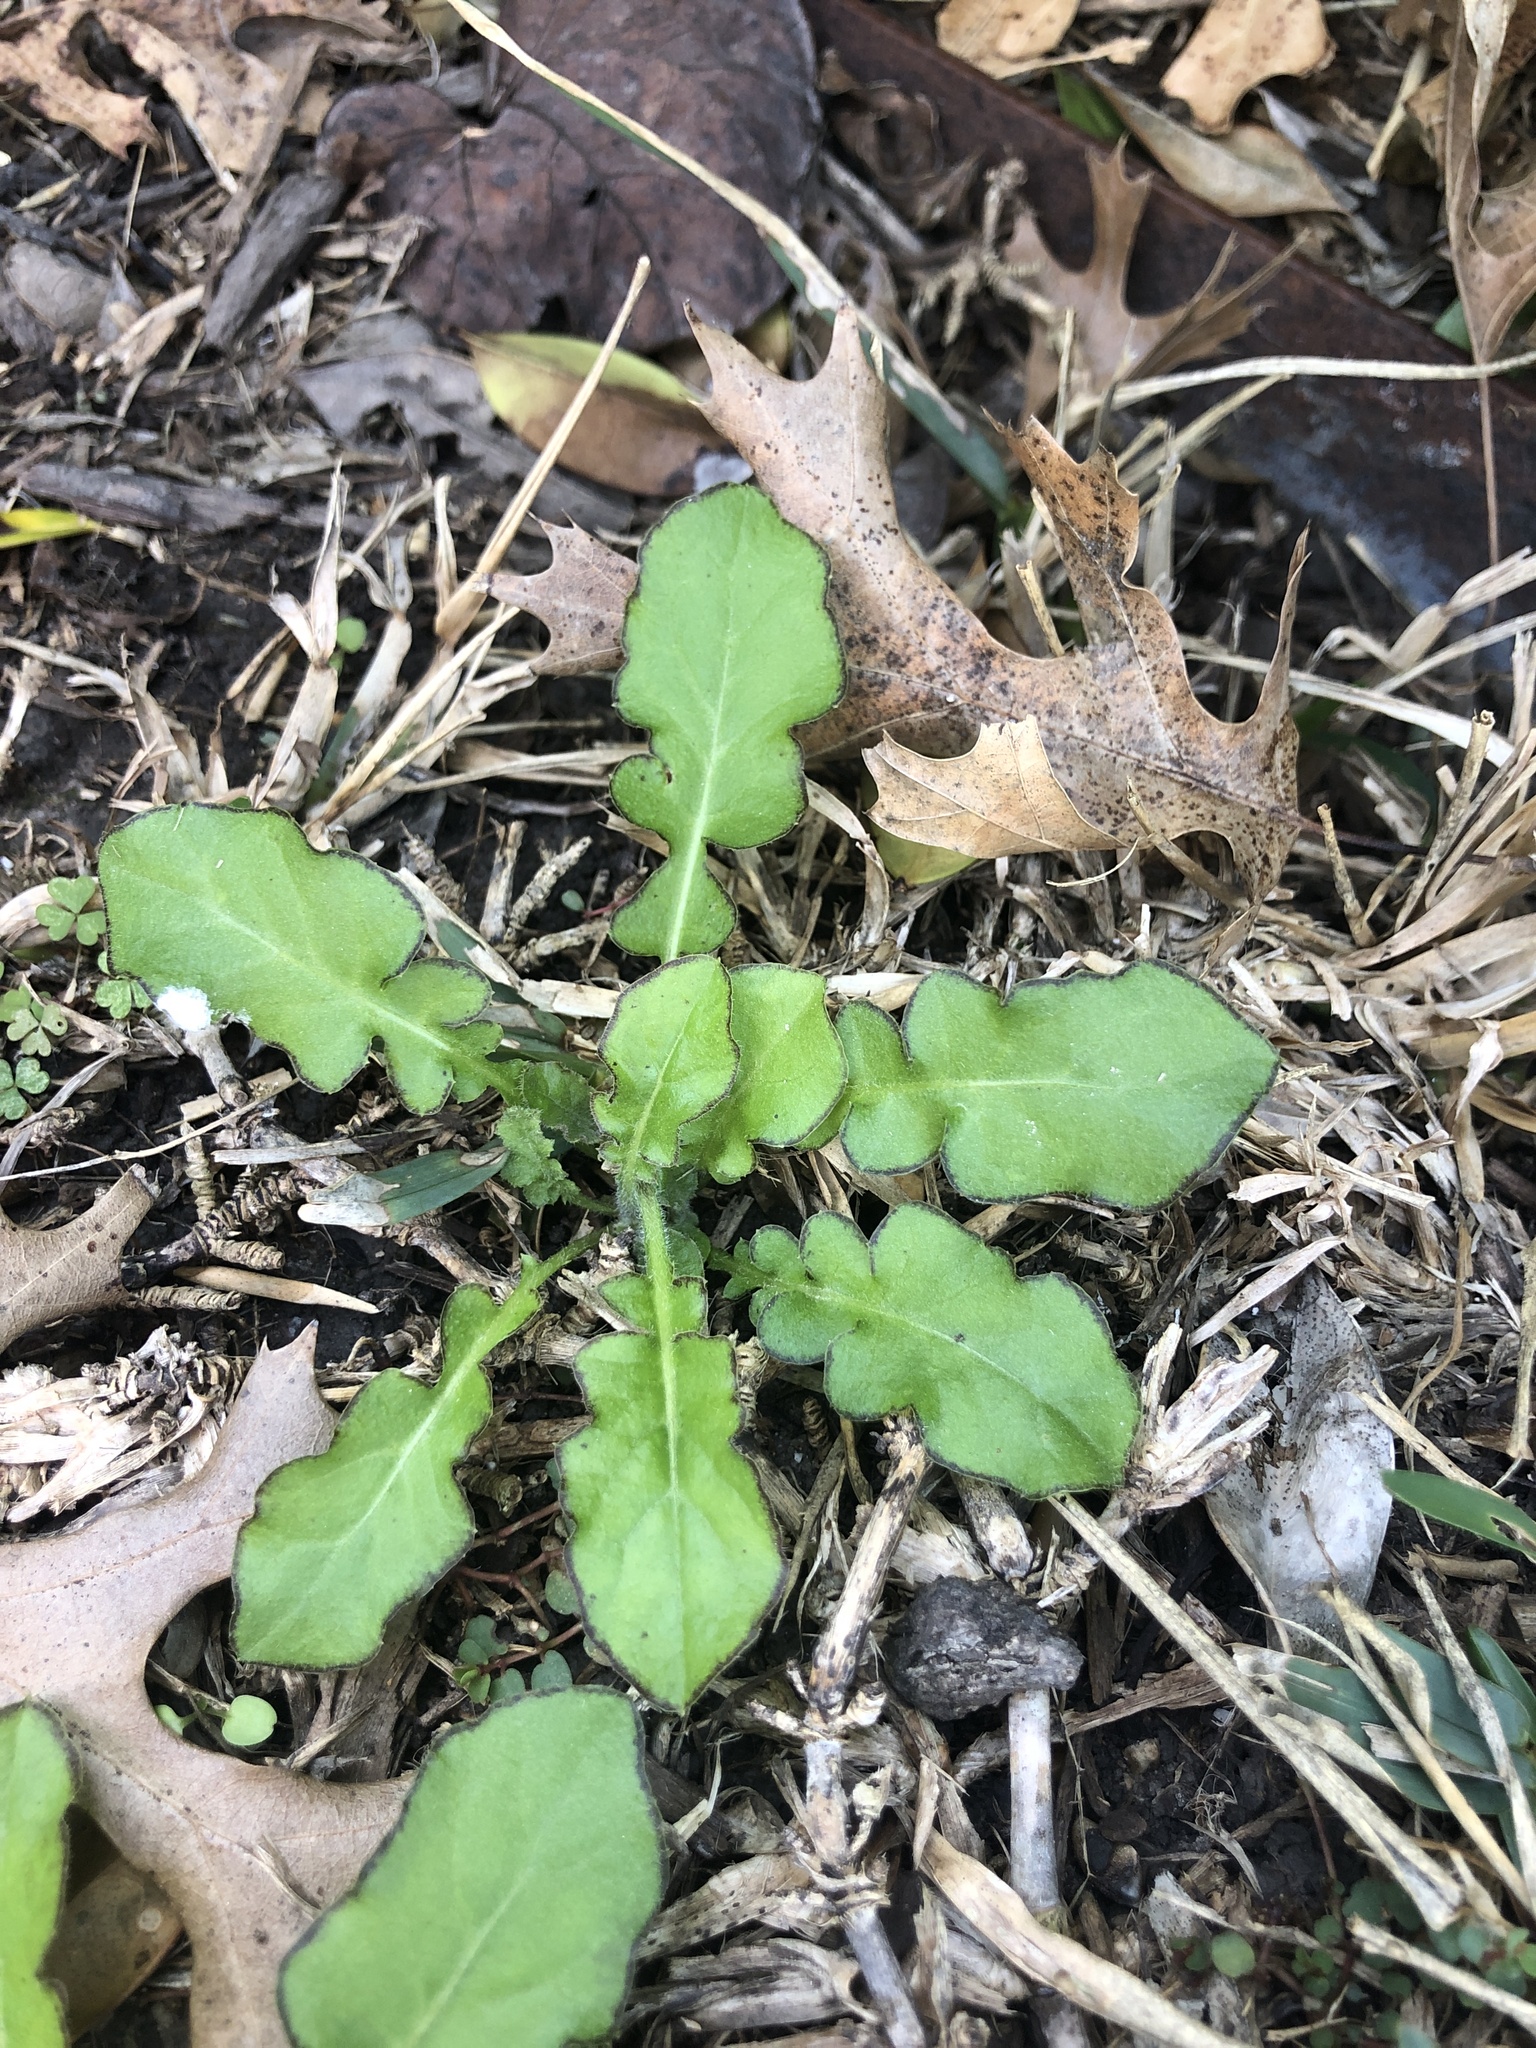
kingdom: Plantae
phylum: Tracheophyta
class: Magnoliopsida
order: Asterales
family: Asteraceae
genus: Youngia
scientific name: Youngia japonica
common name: Oriental false hawksbeard
